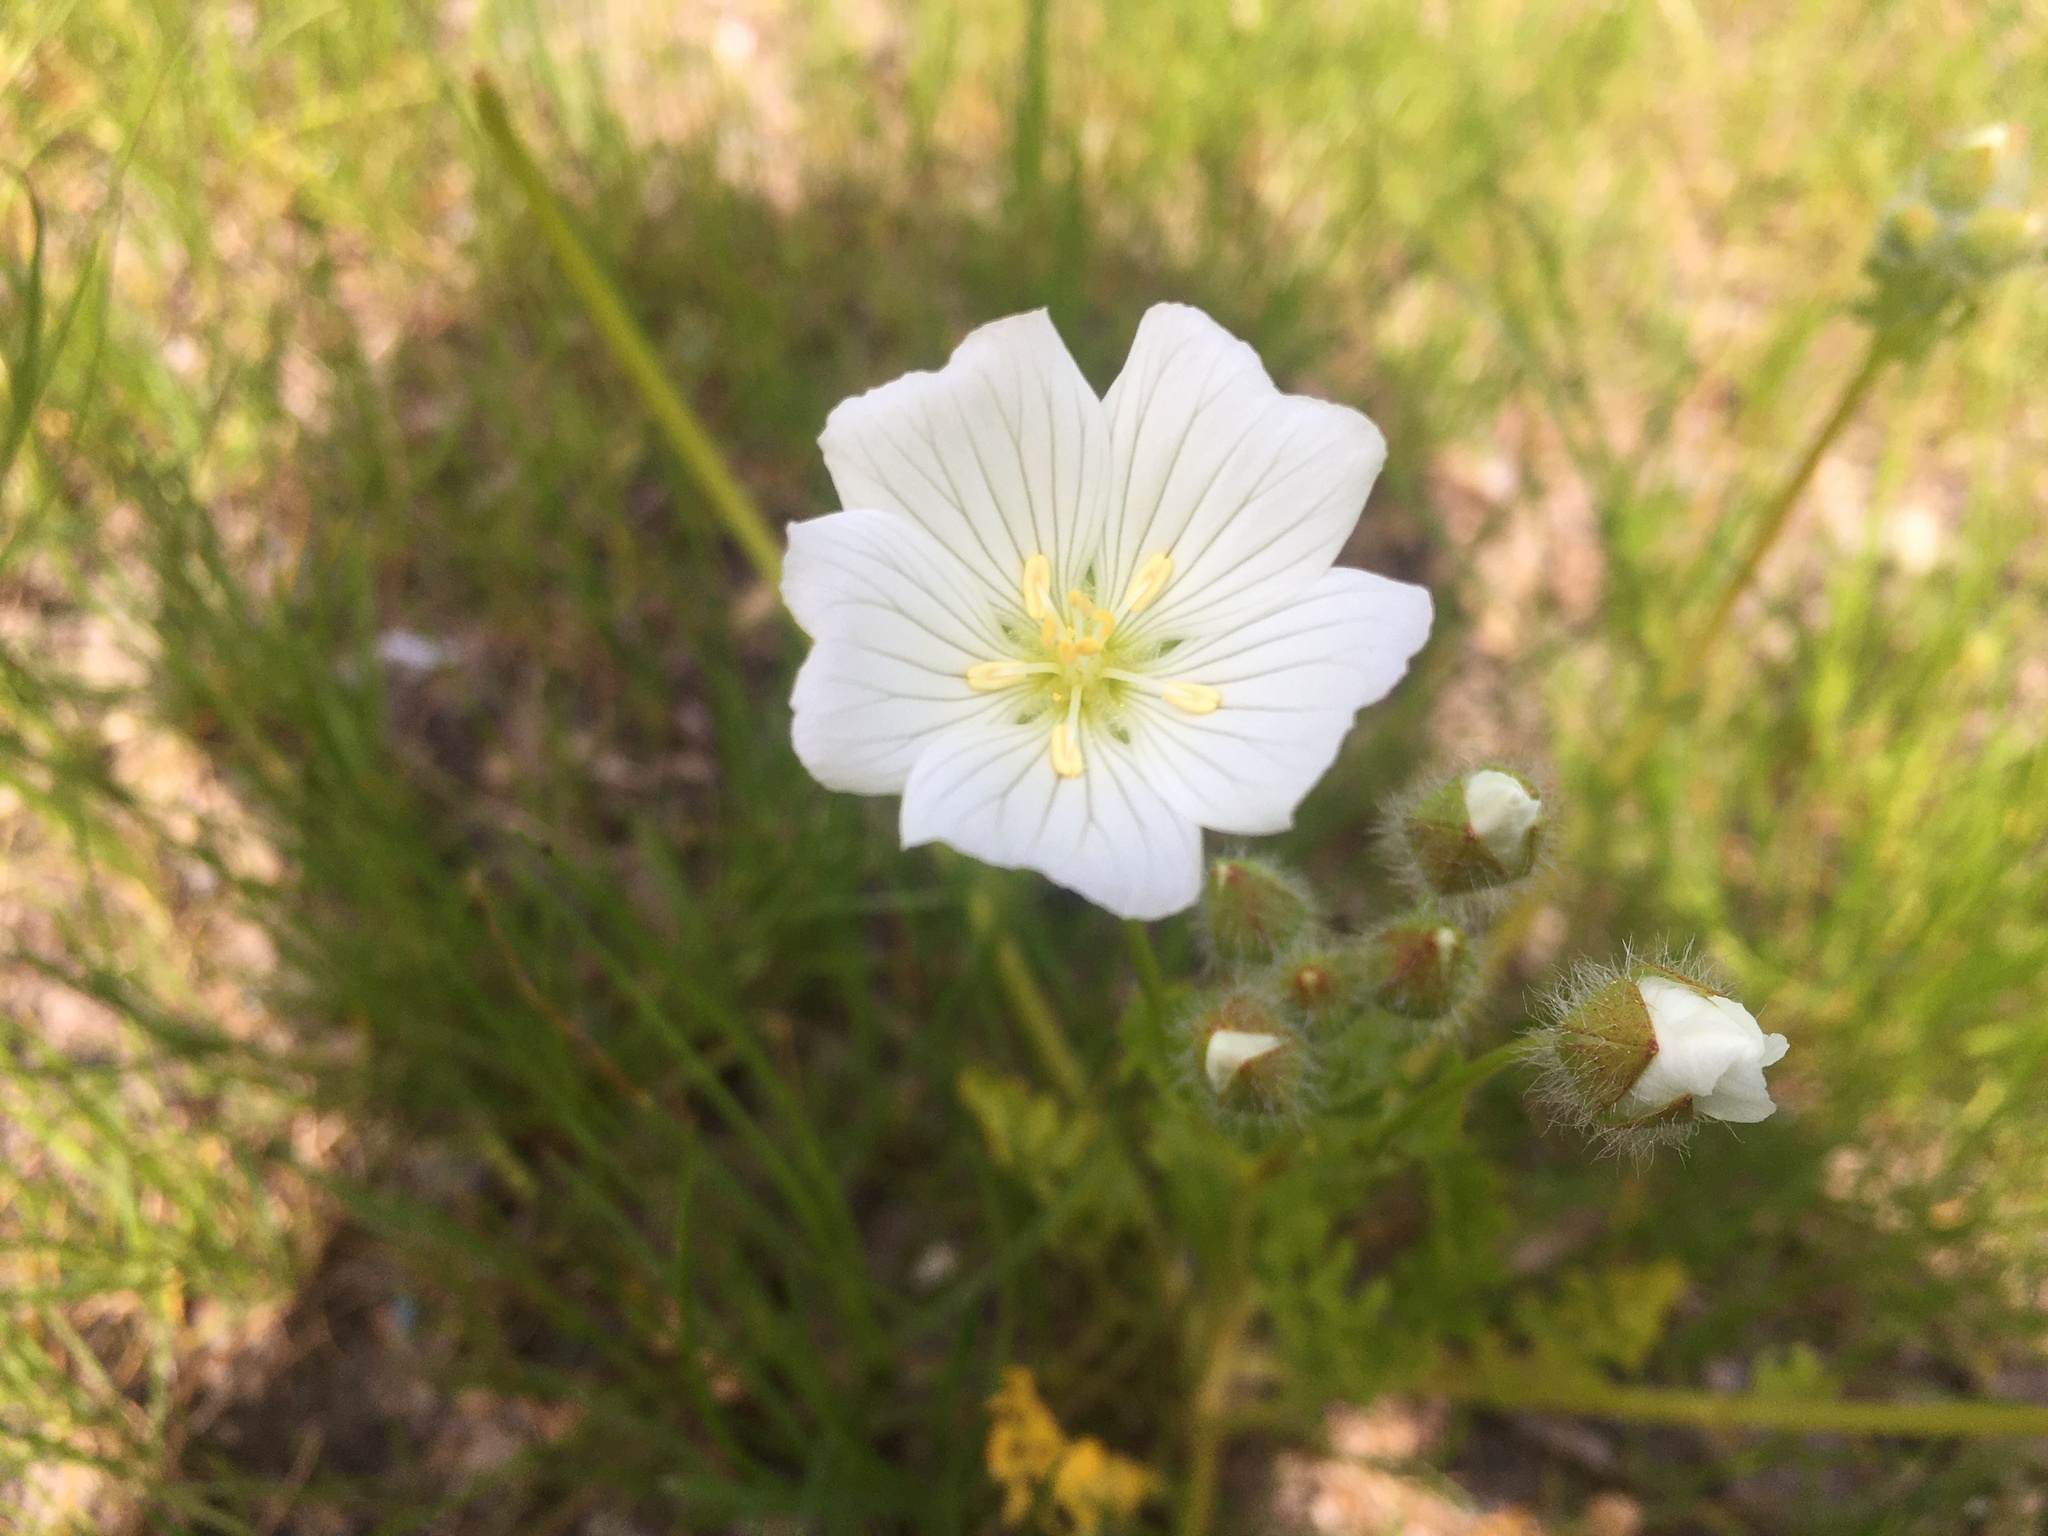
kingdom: Plantae
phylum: Tracheophyta
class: Magnoliopsida
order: Brassicales
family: Limnanthaceae
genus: Limnanthes
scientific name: Limnanthes alba
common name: Meadowfoam
